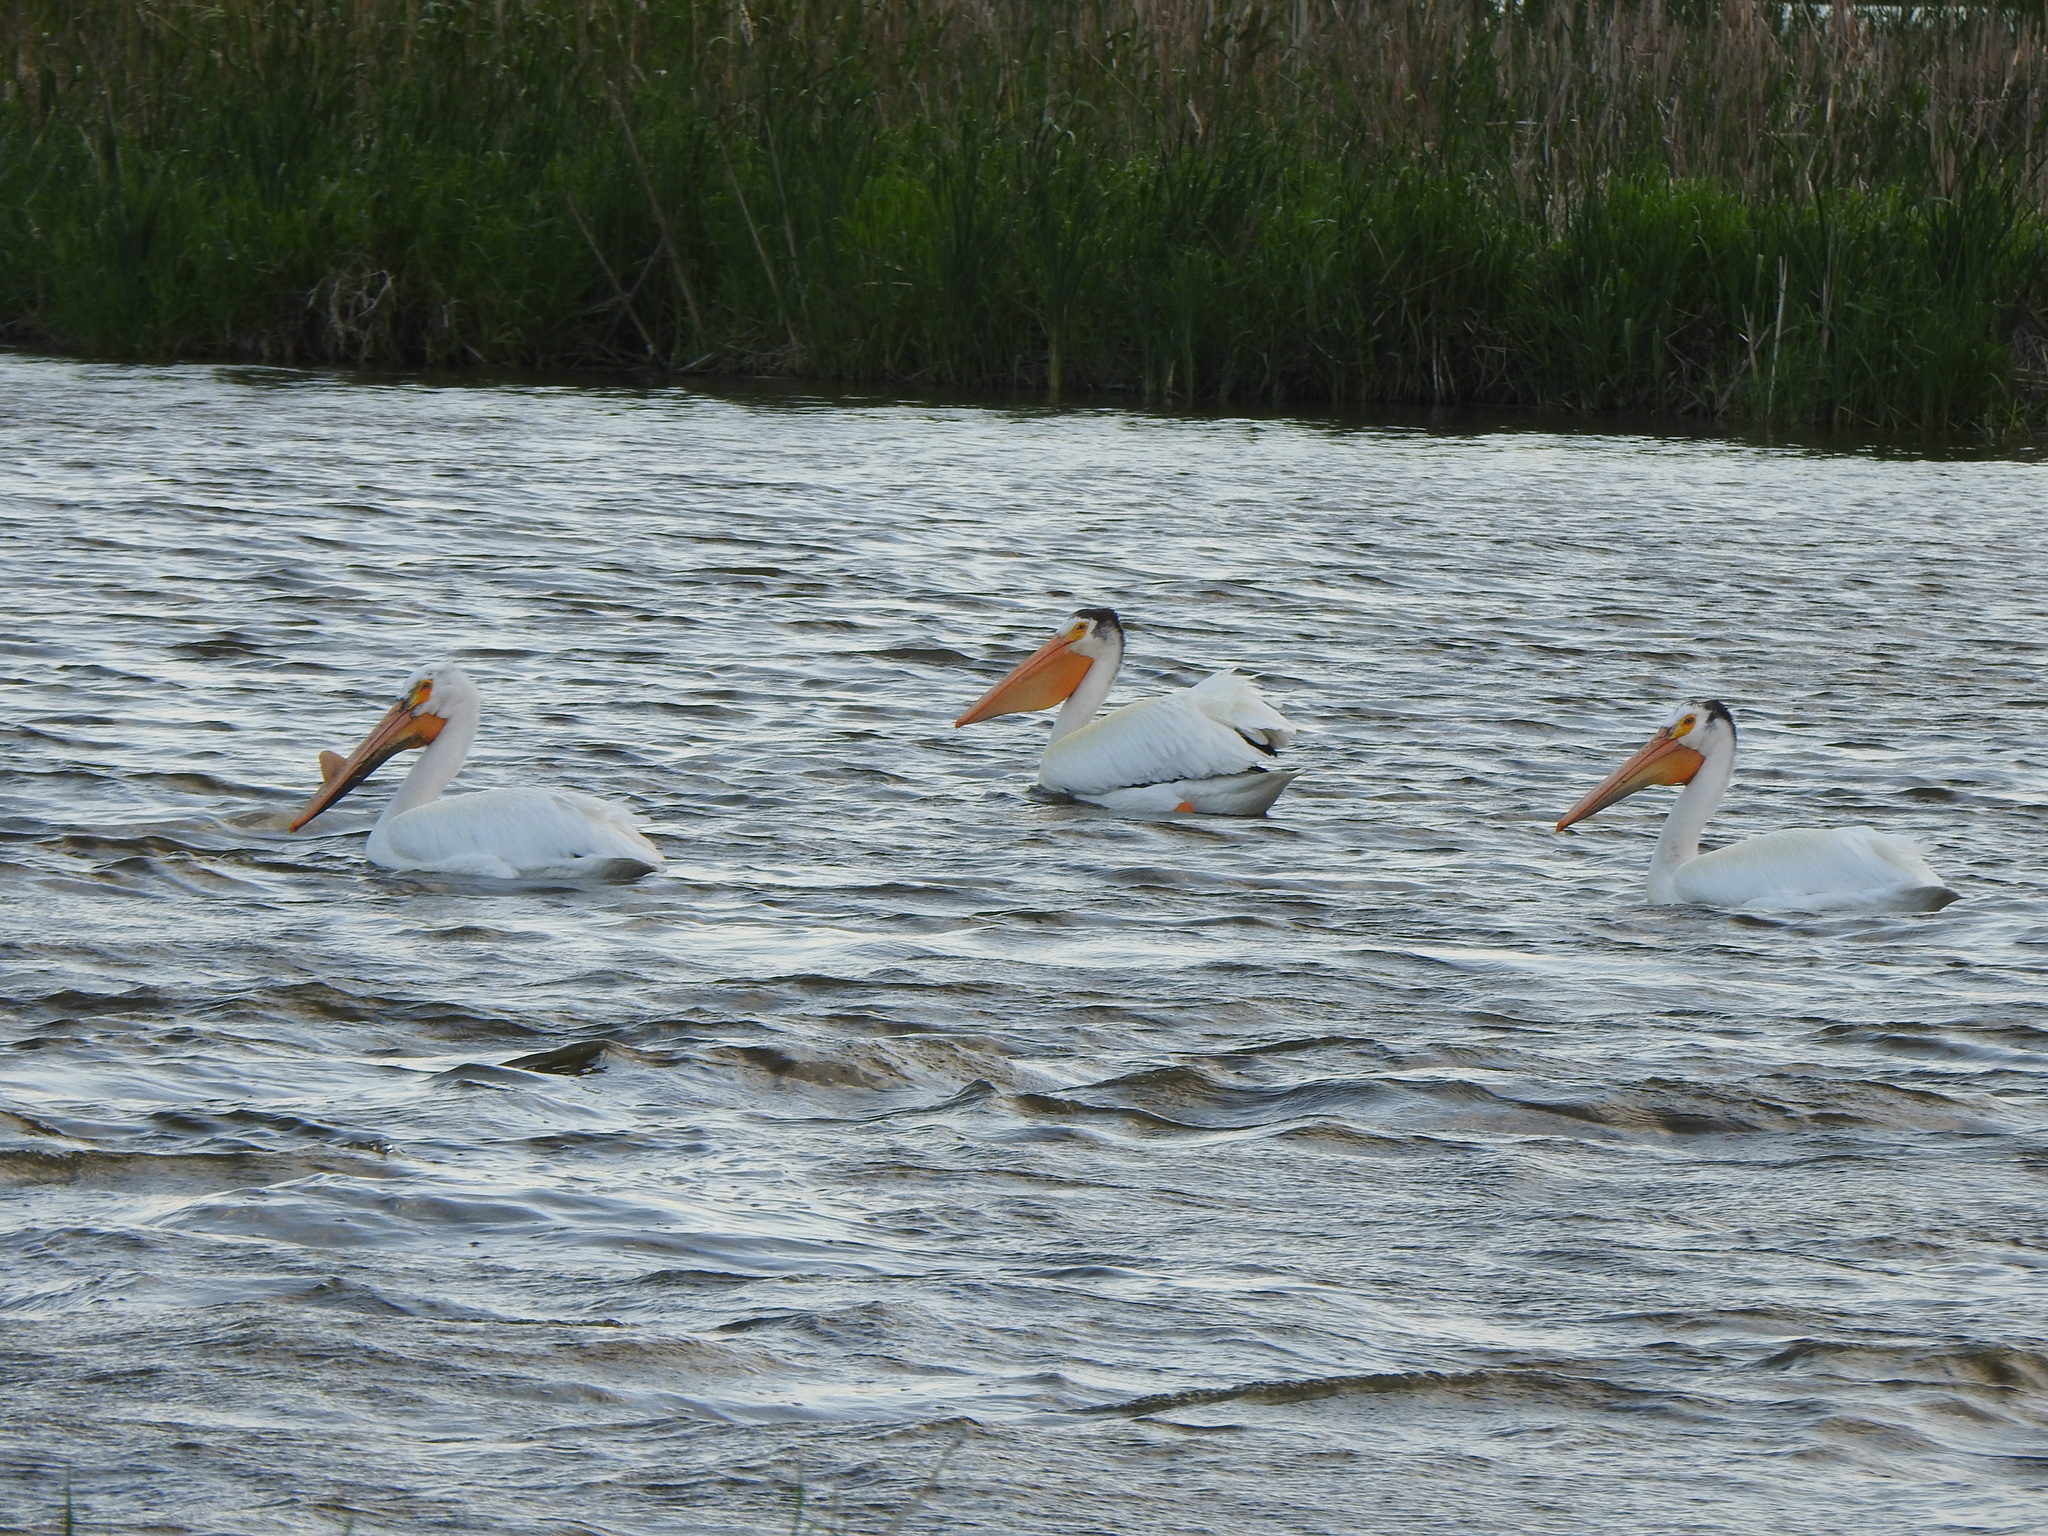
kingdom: Animalia
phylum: Chordata
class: Aves
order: Pelecaniformes
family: Pelecanidae
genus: Pelecanus
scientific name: Pelecanus erythrorhynchos
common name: American white pelican
